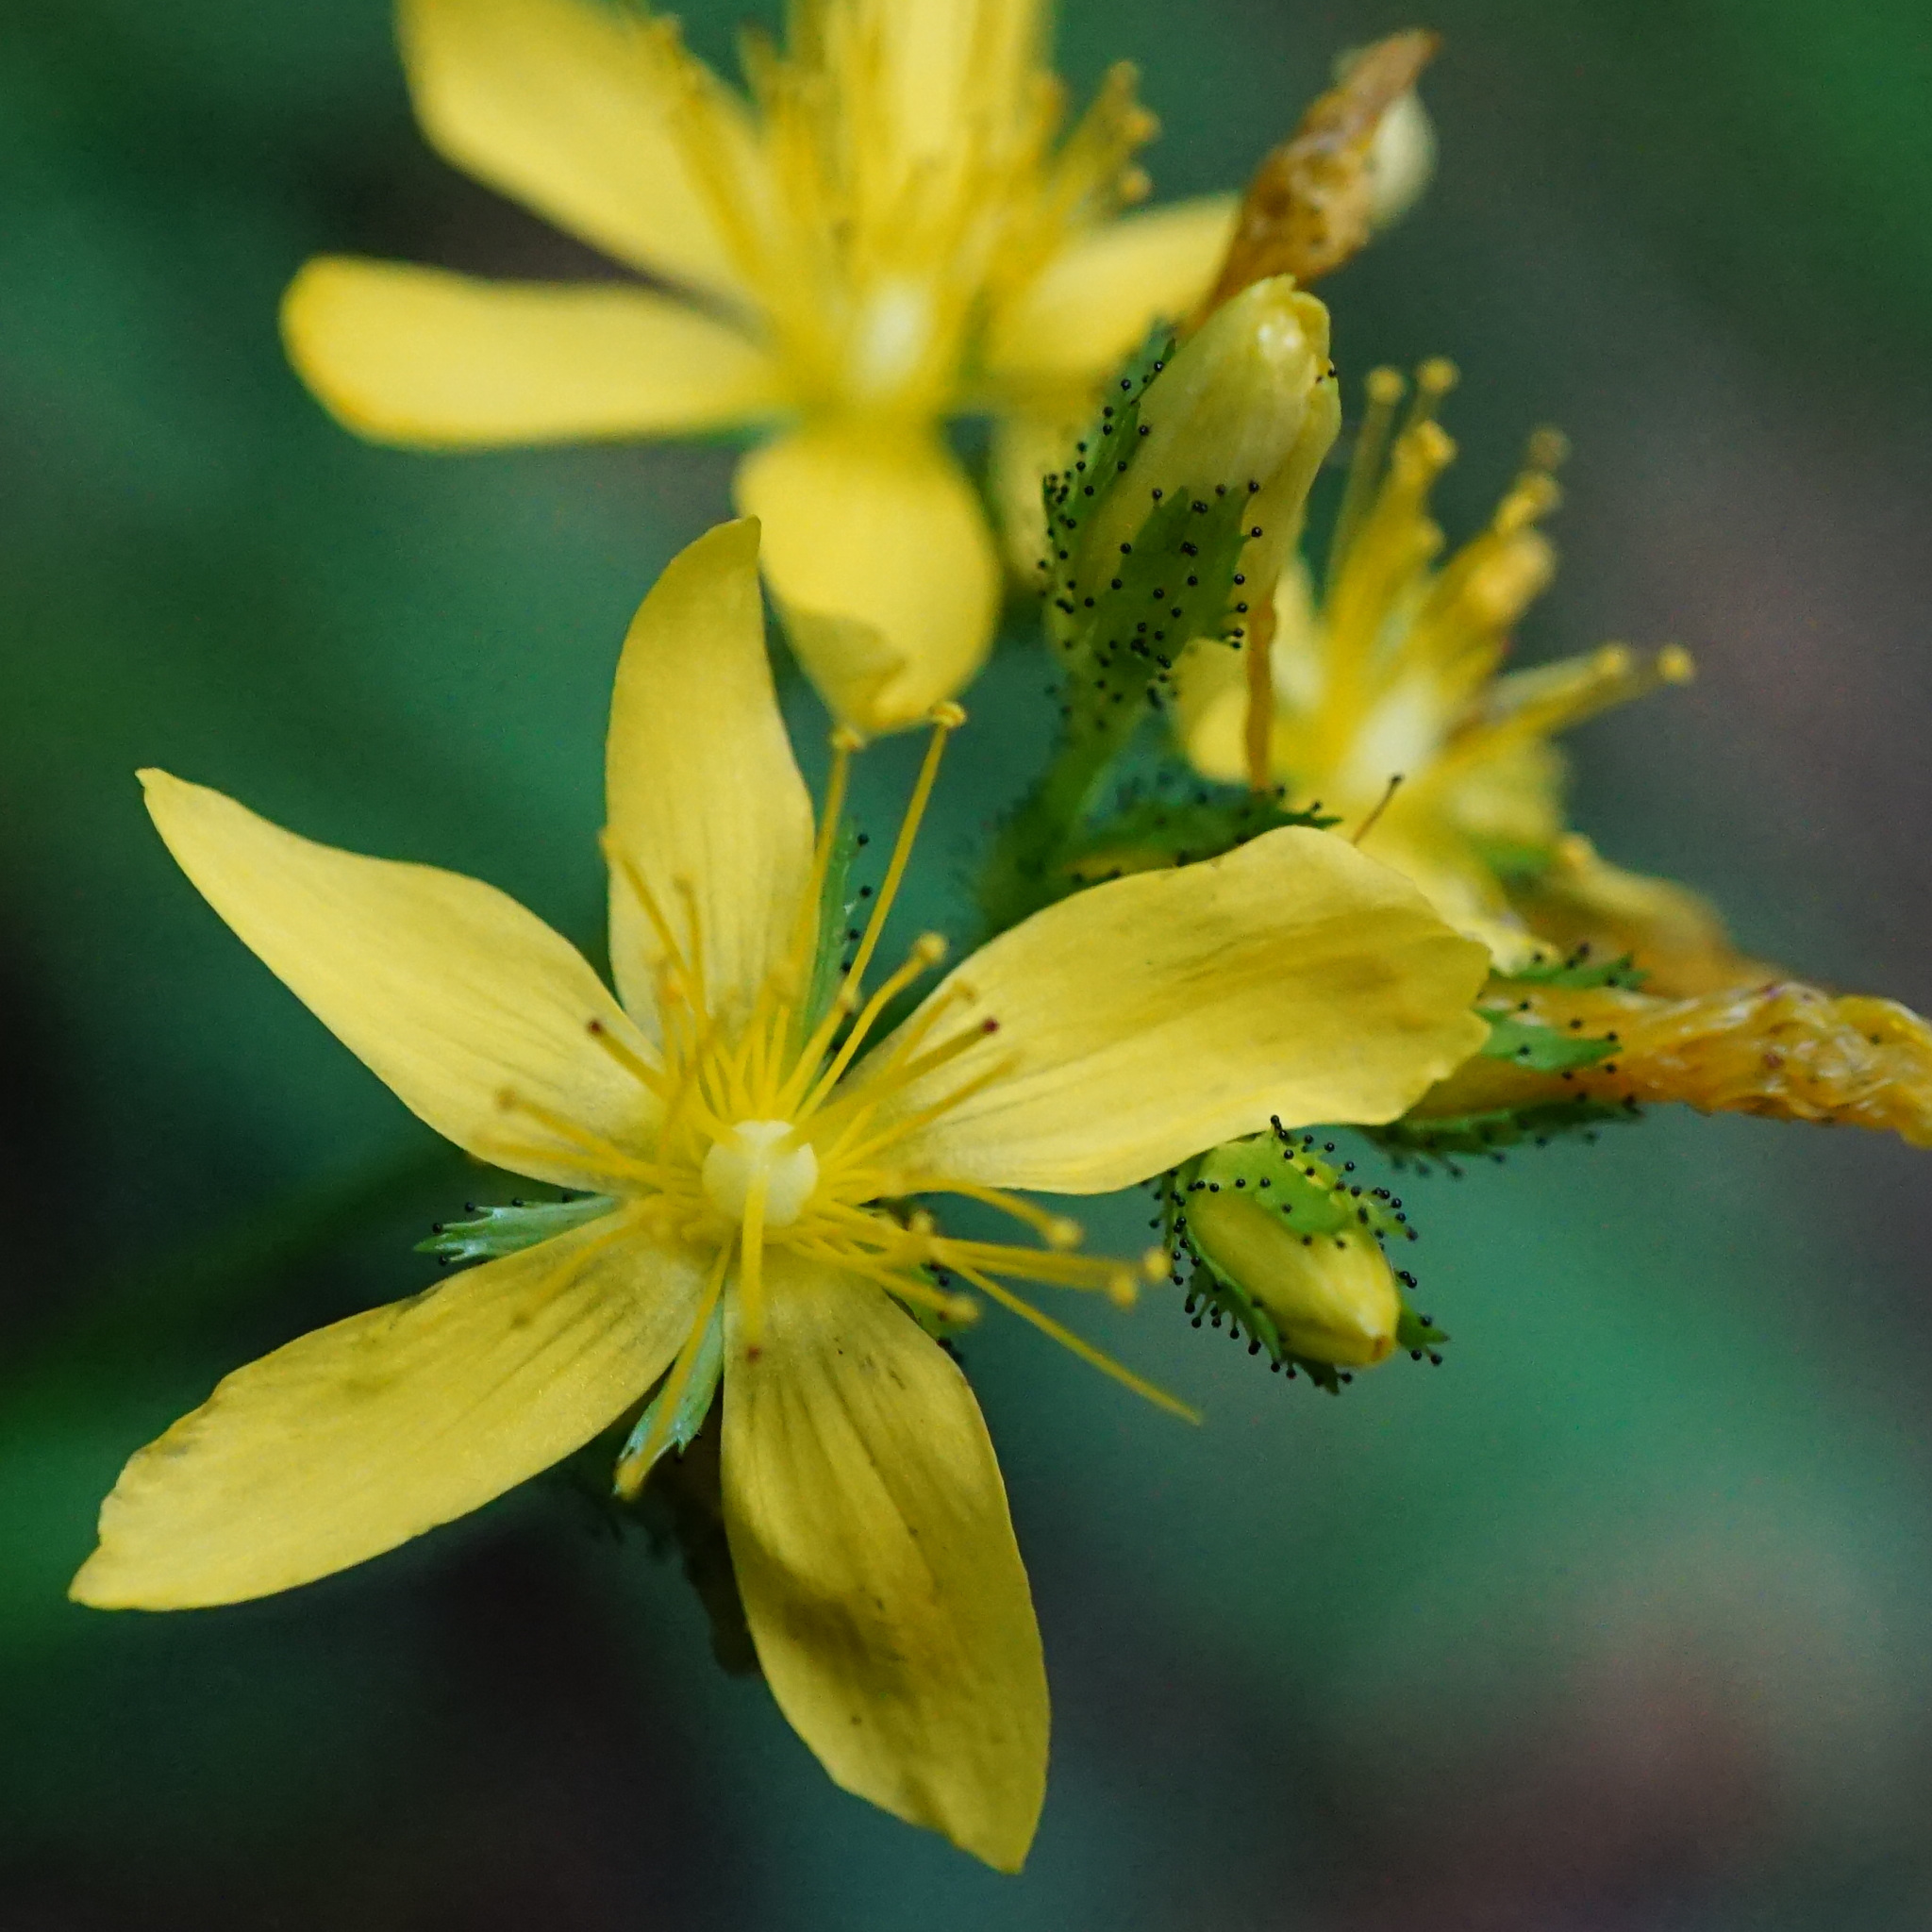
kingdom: Plantae
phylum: Tracheophyta
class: Magnoliopsida
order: Malpighiales
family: Hypericaceae
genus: Hypericum
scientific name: Hypericum montanum
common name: Pale st. john's-wort
